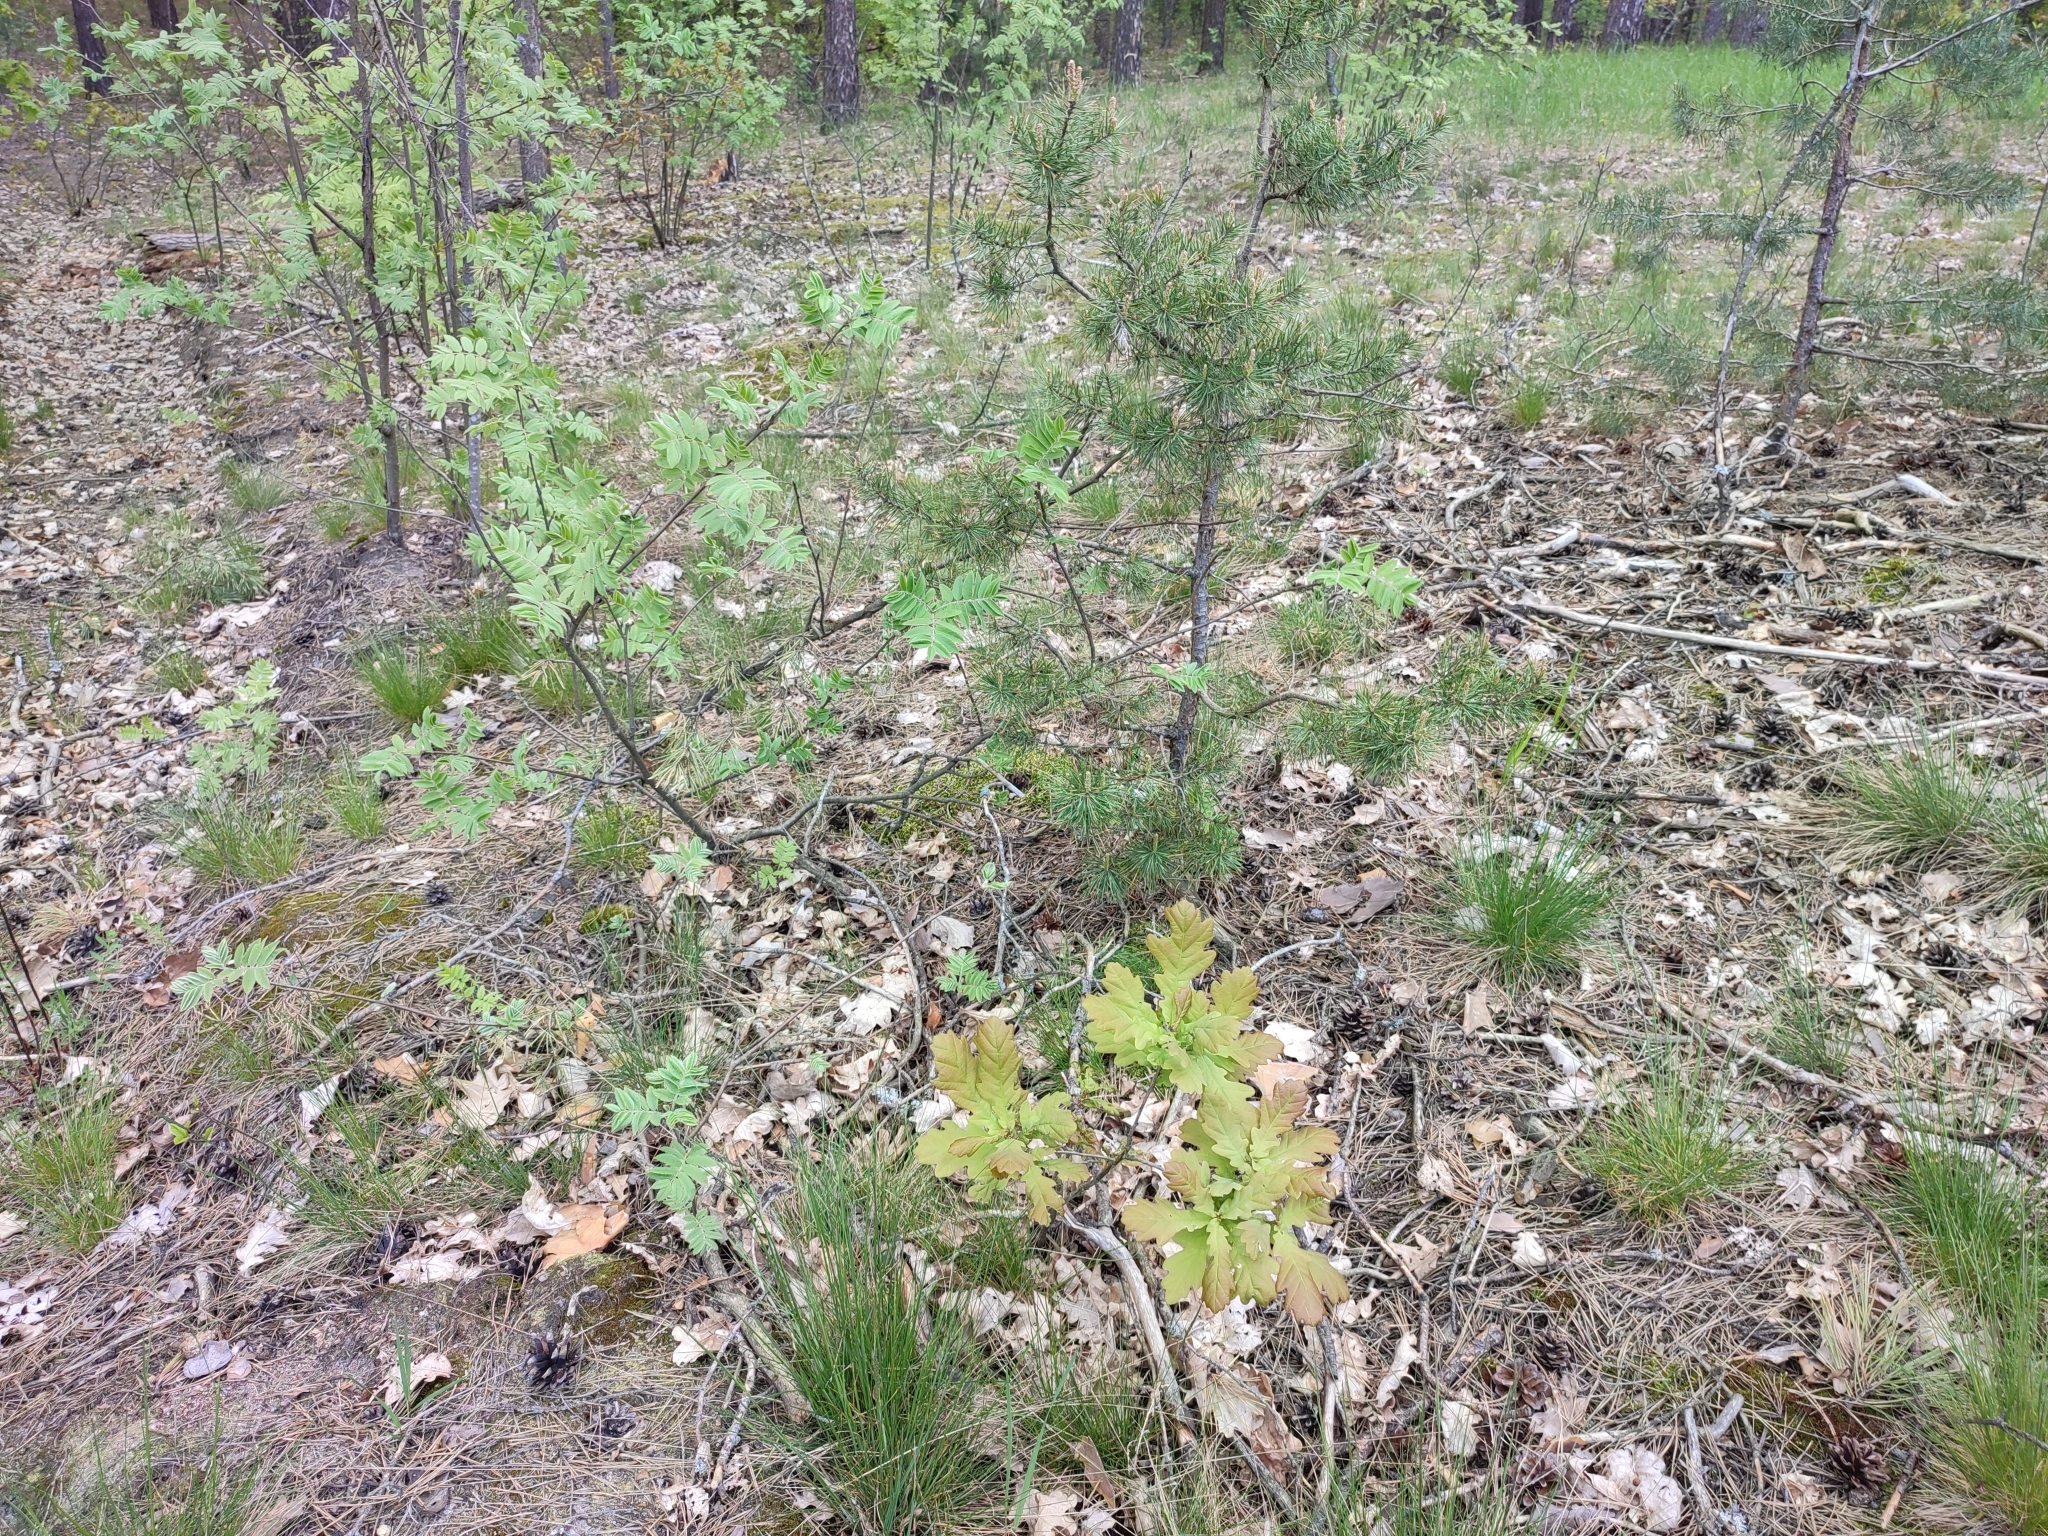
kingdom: Plantae
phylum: Tracheophyta
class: Magnoliopsida
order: Fagales
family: Fagaceae
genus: Quercus
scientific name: Quercus robur
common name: Pedunculate oak
